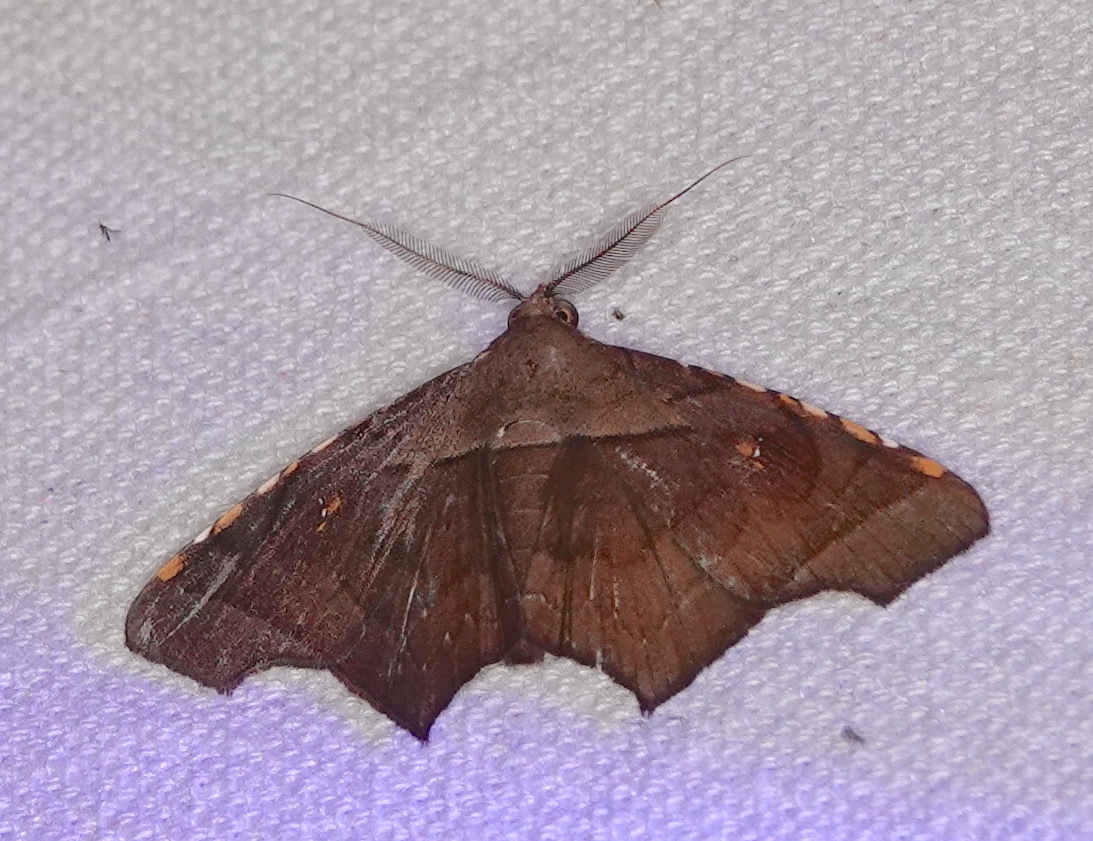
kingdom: Animalia
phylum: Arthropoda
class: Insecta
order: Lepidoptera
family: Erebidae
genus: Episparis
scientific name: Episparis costistriga
